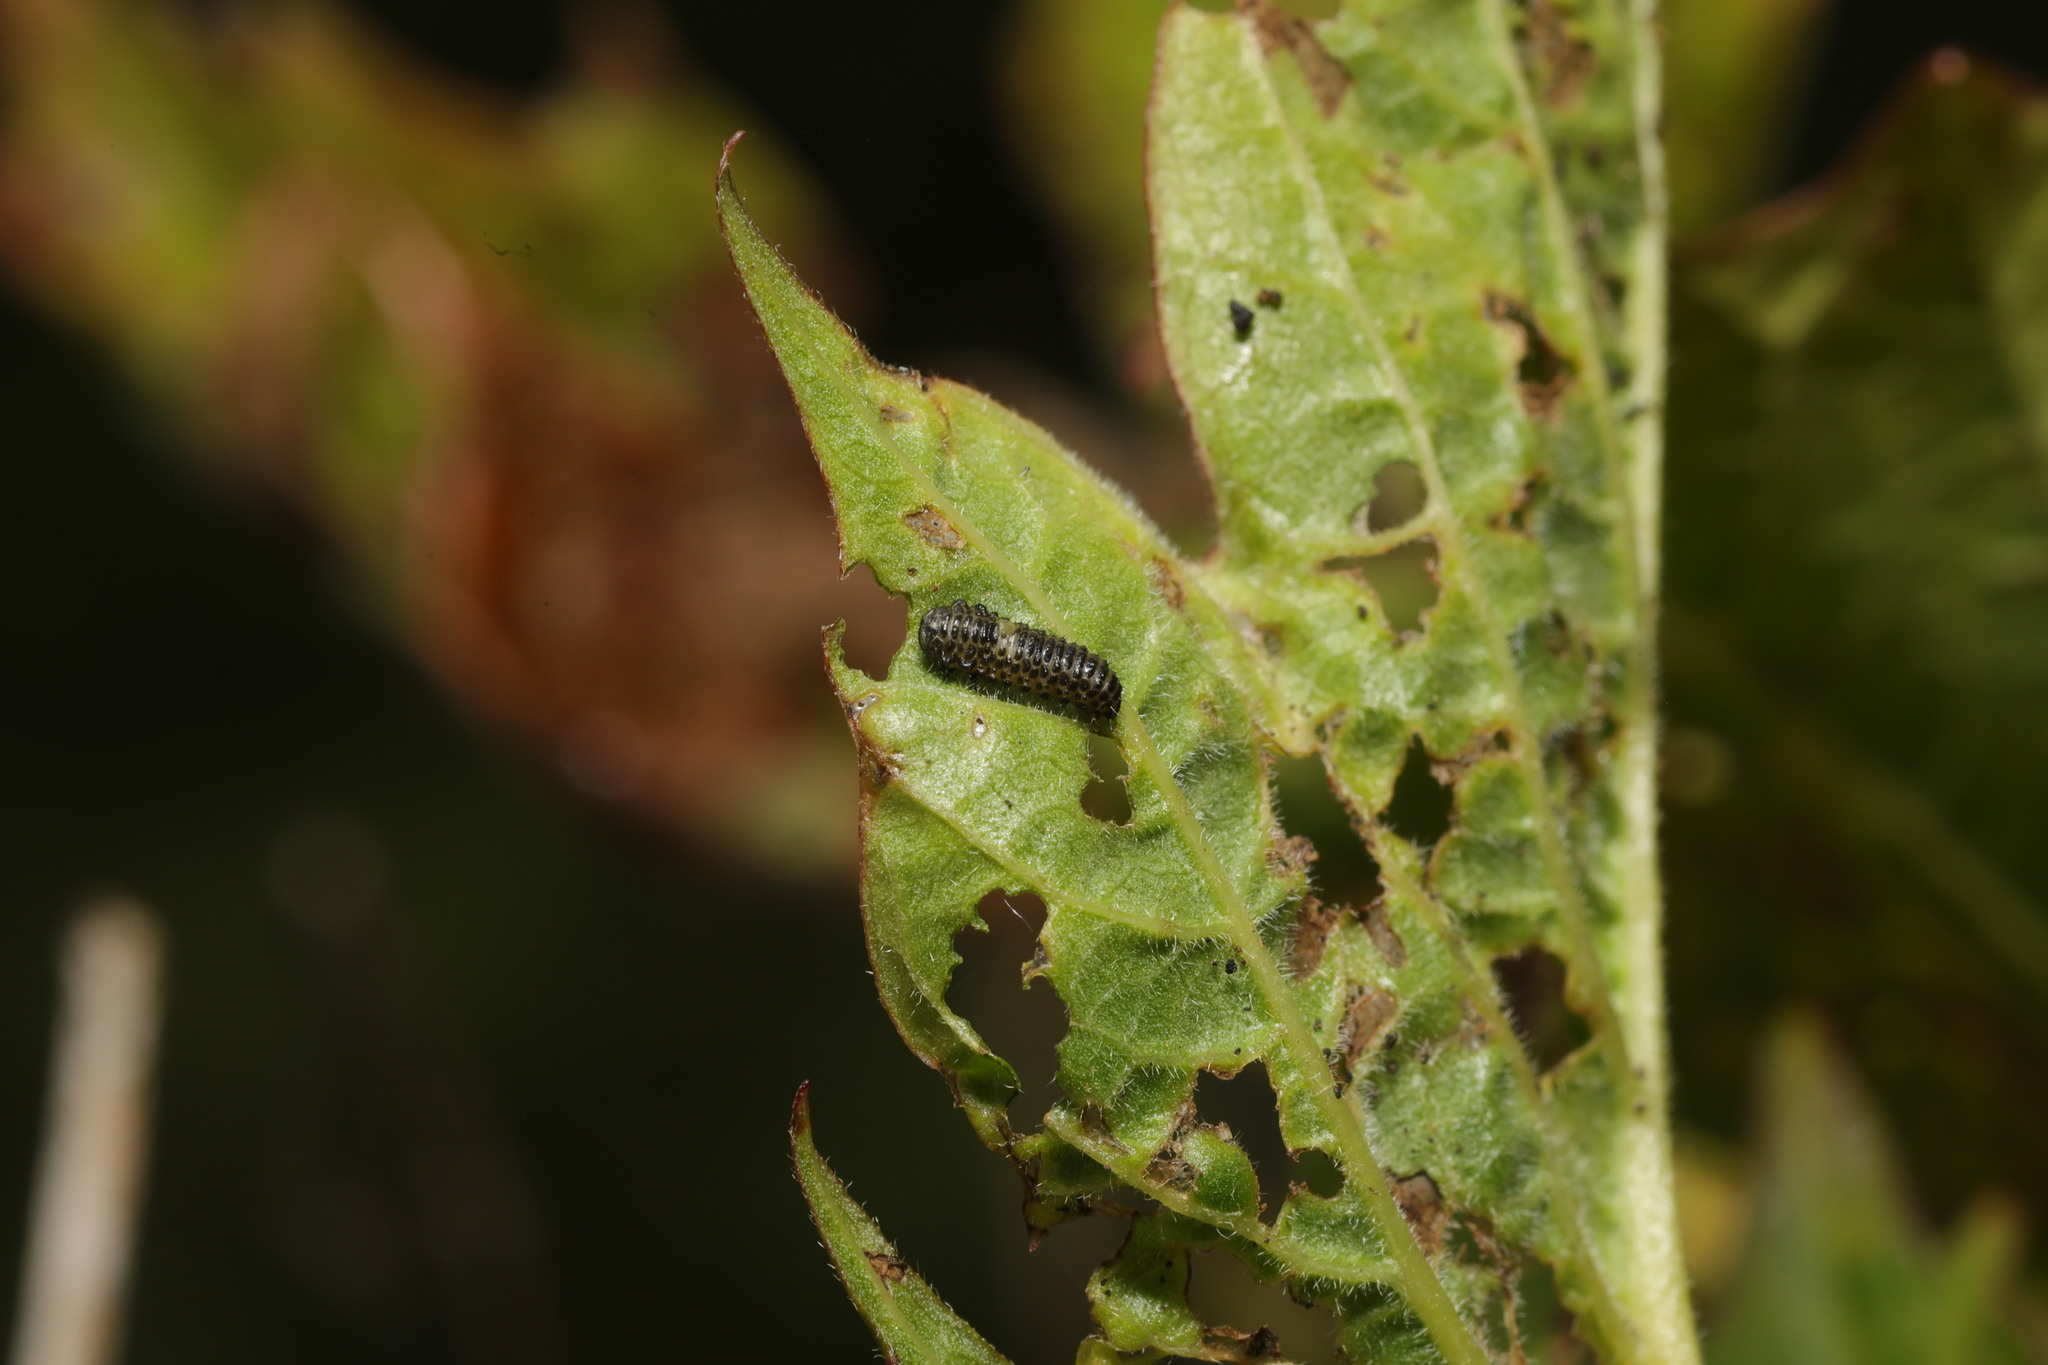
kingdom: Animalia
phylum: Arthropoda
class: Insecta
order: Coleoptera
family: Chrysomelidae
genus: Pyrrhalta
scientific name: Pyrrhalta viburni
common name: Guelder-rose leaf beetle
